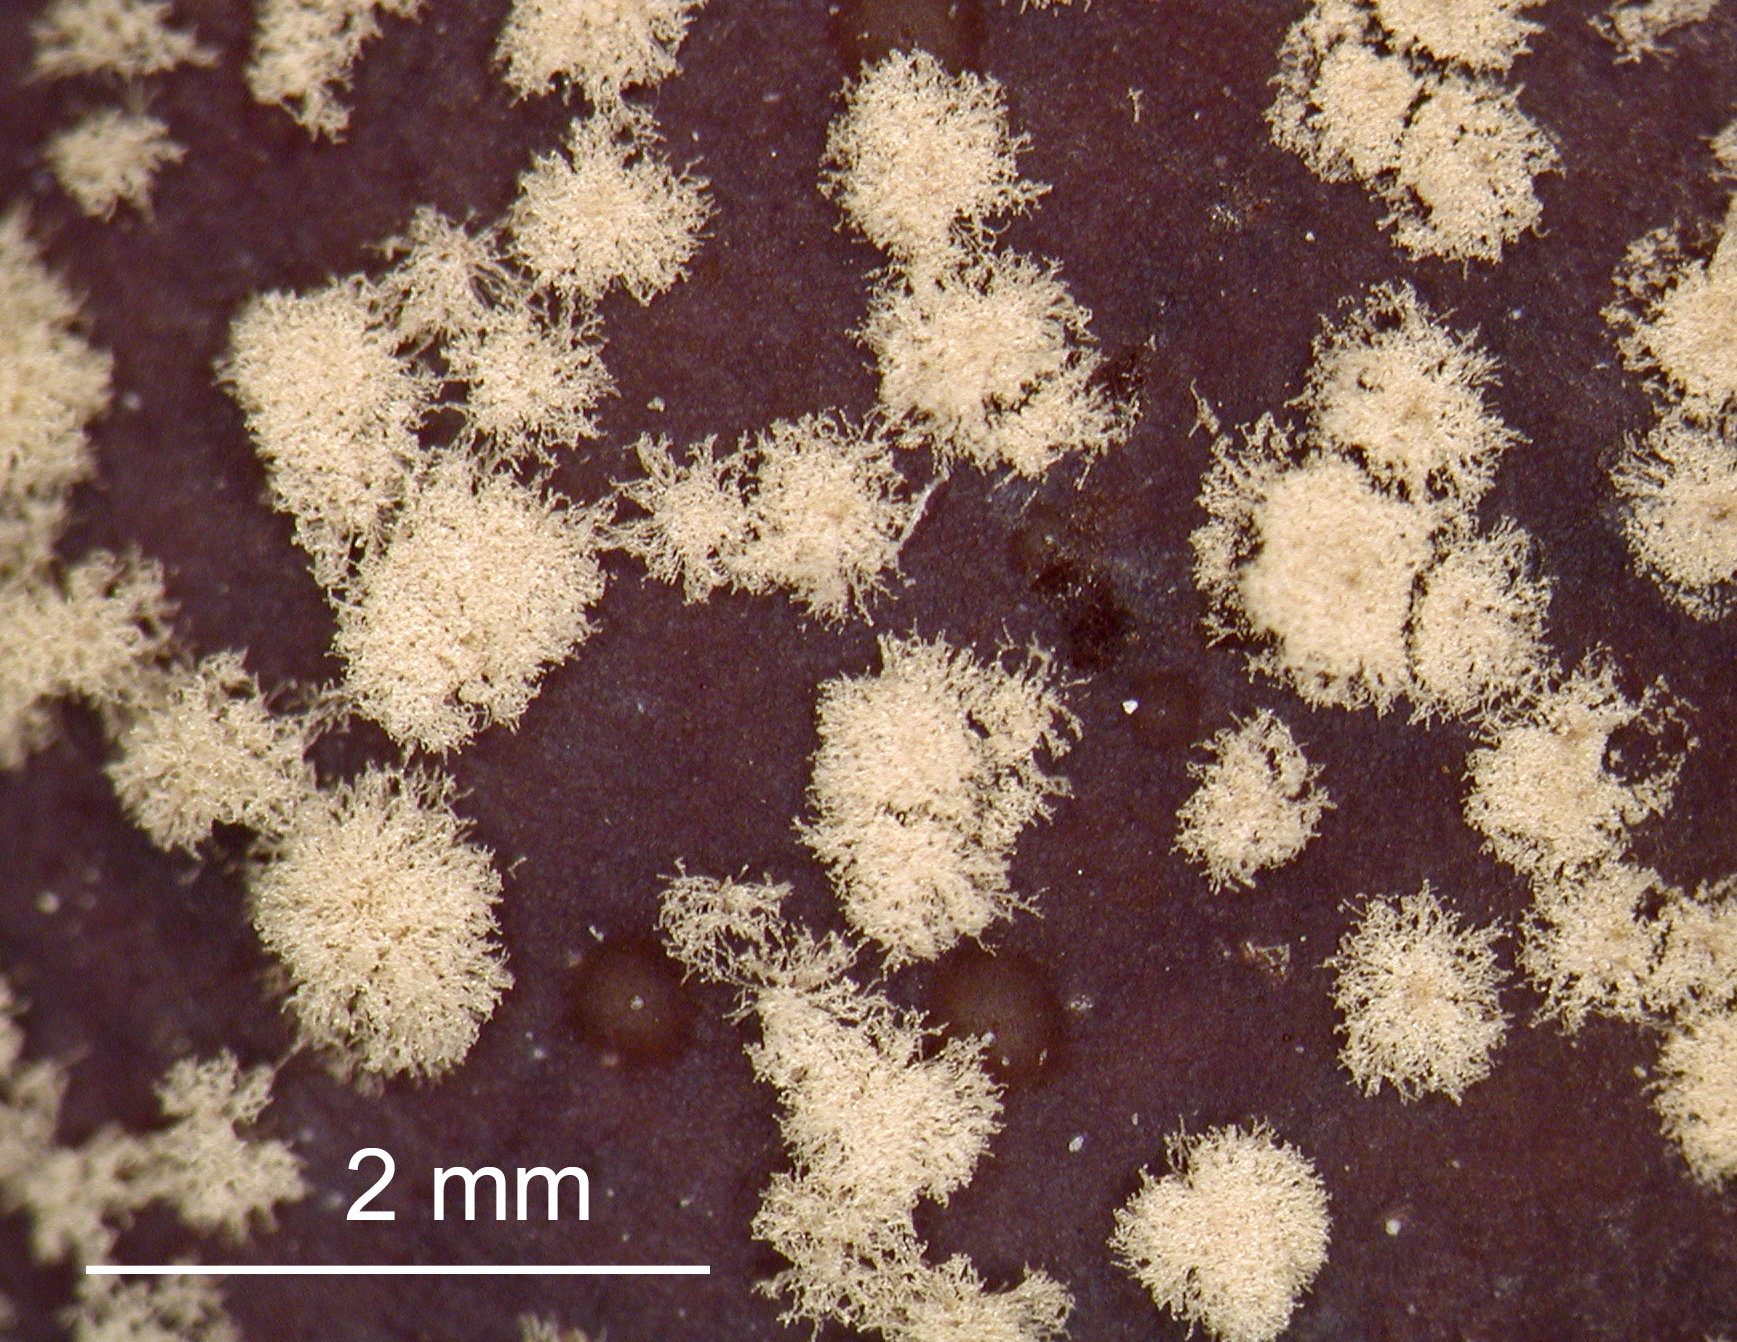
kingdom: Fungi
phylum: Ascomycota
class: Leotiomycetes
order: Helotiales
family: Sclerotiniaceae
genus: Monilinia
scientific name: Monilinia fructicola
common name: Brown fruit rot
